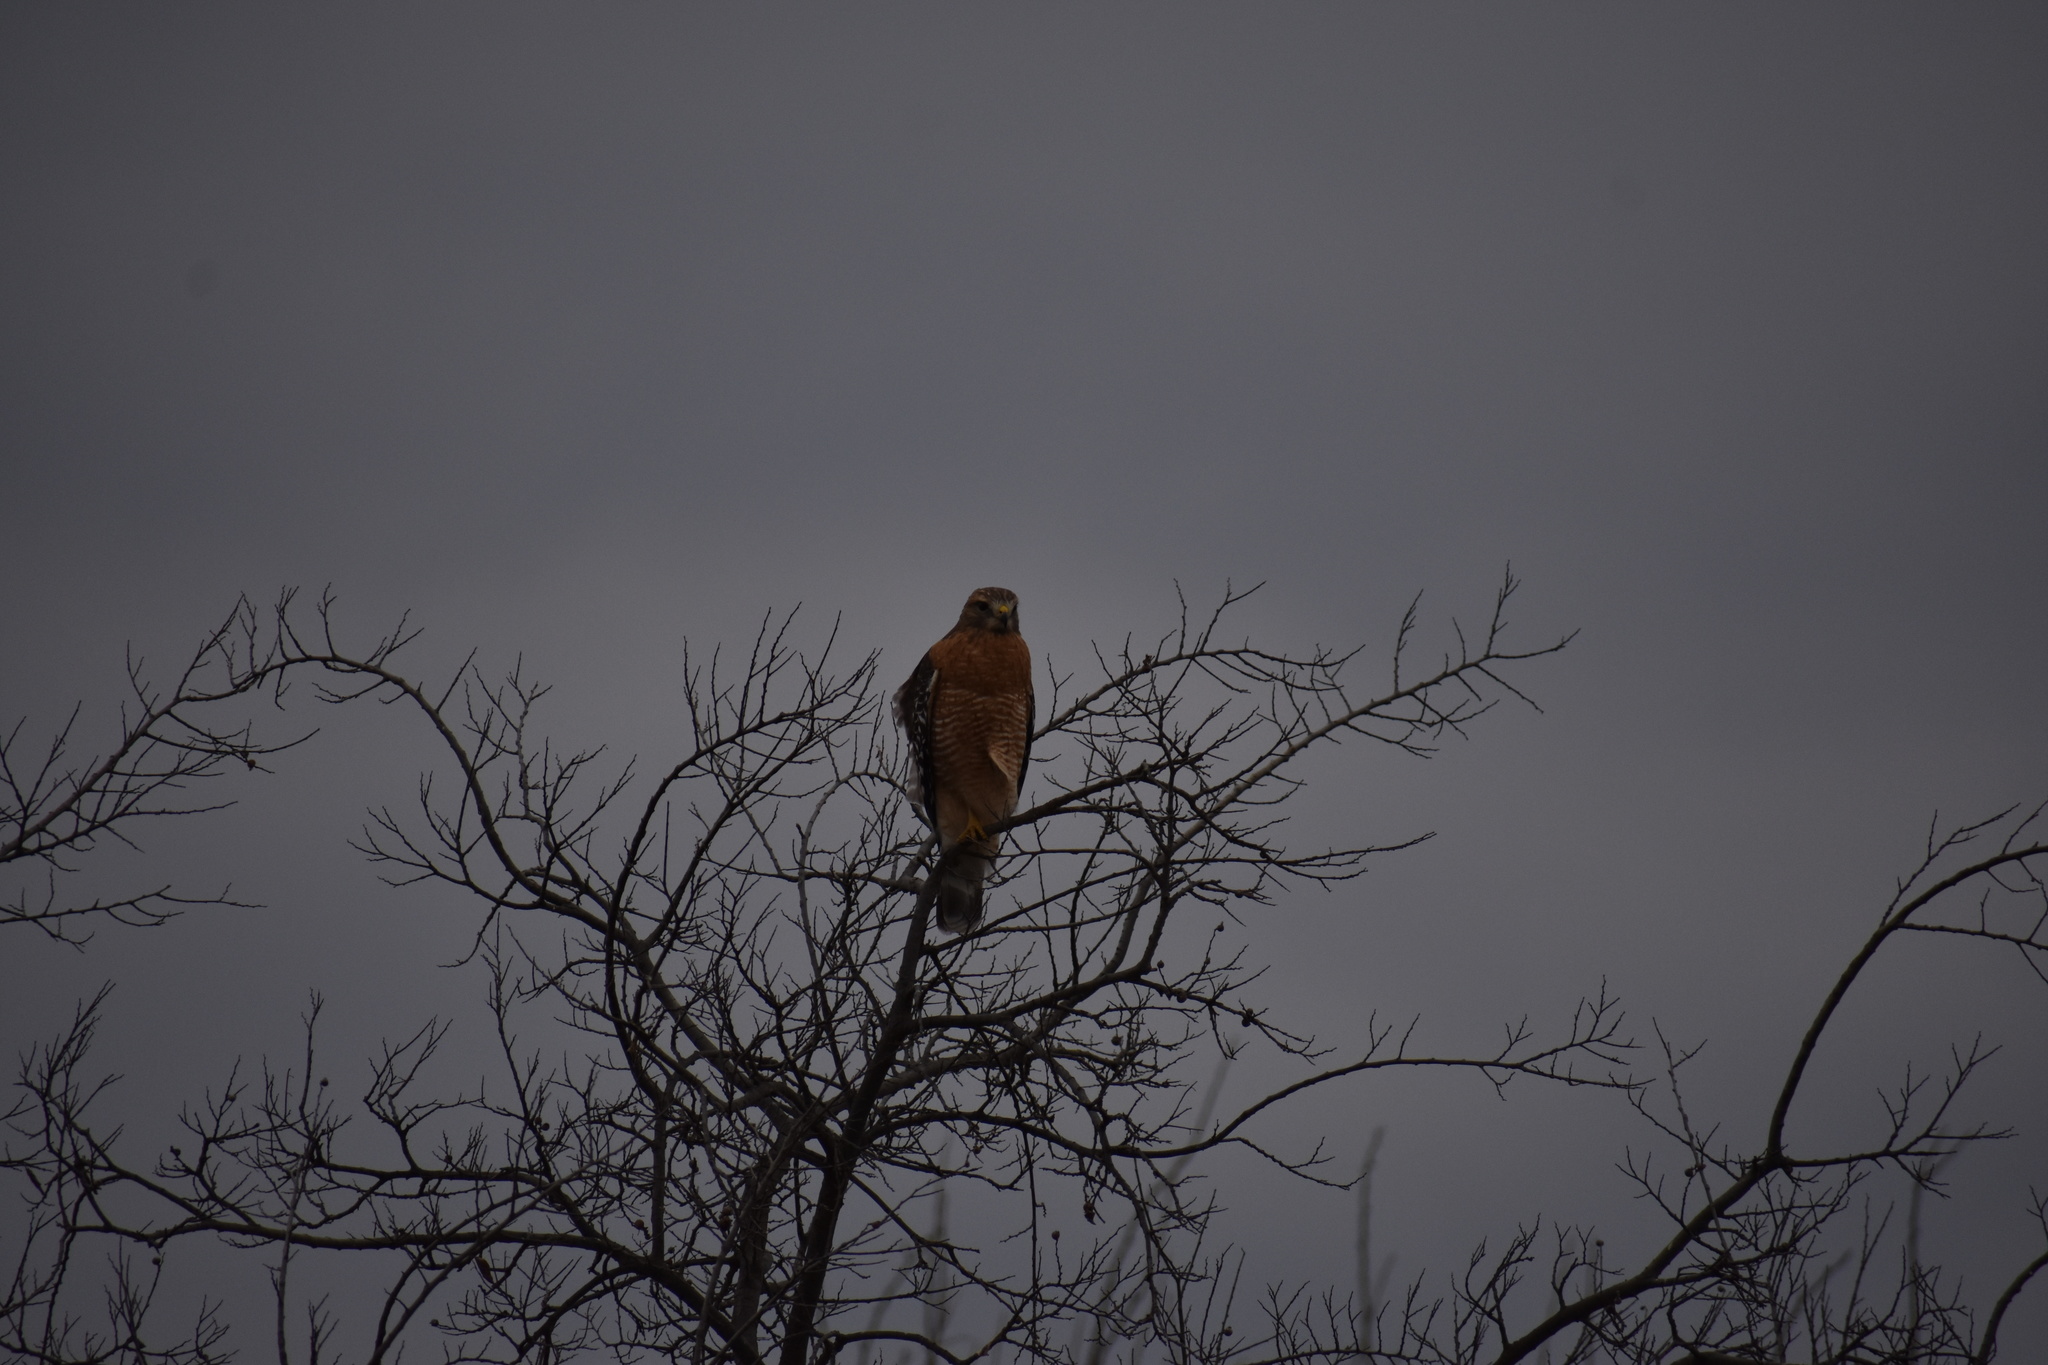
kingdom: Animalia
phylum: Chordata
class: Aves
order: Accipitriformes
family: Accipitridae
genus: Buteo
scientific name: Buteo lineatus
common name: Red-shouldered hawk
